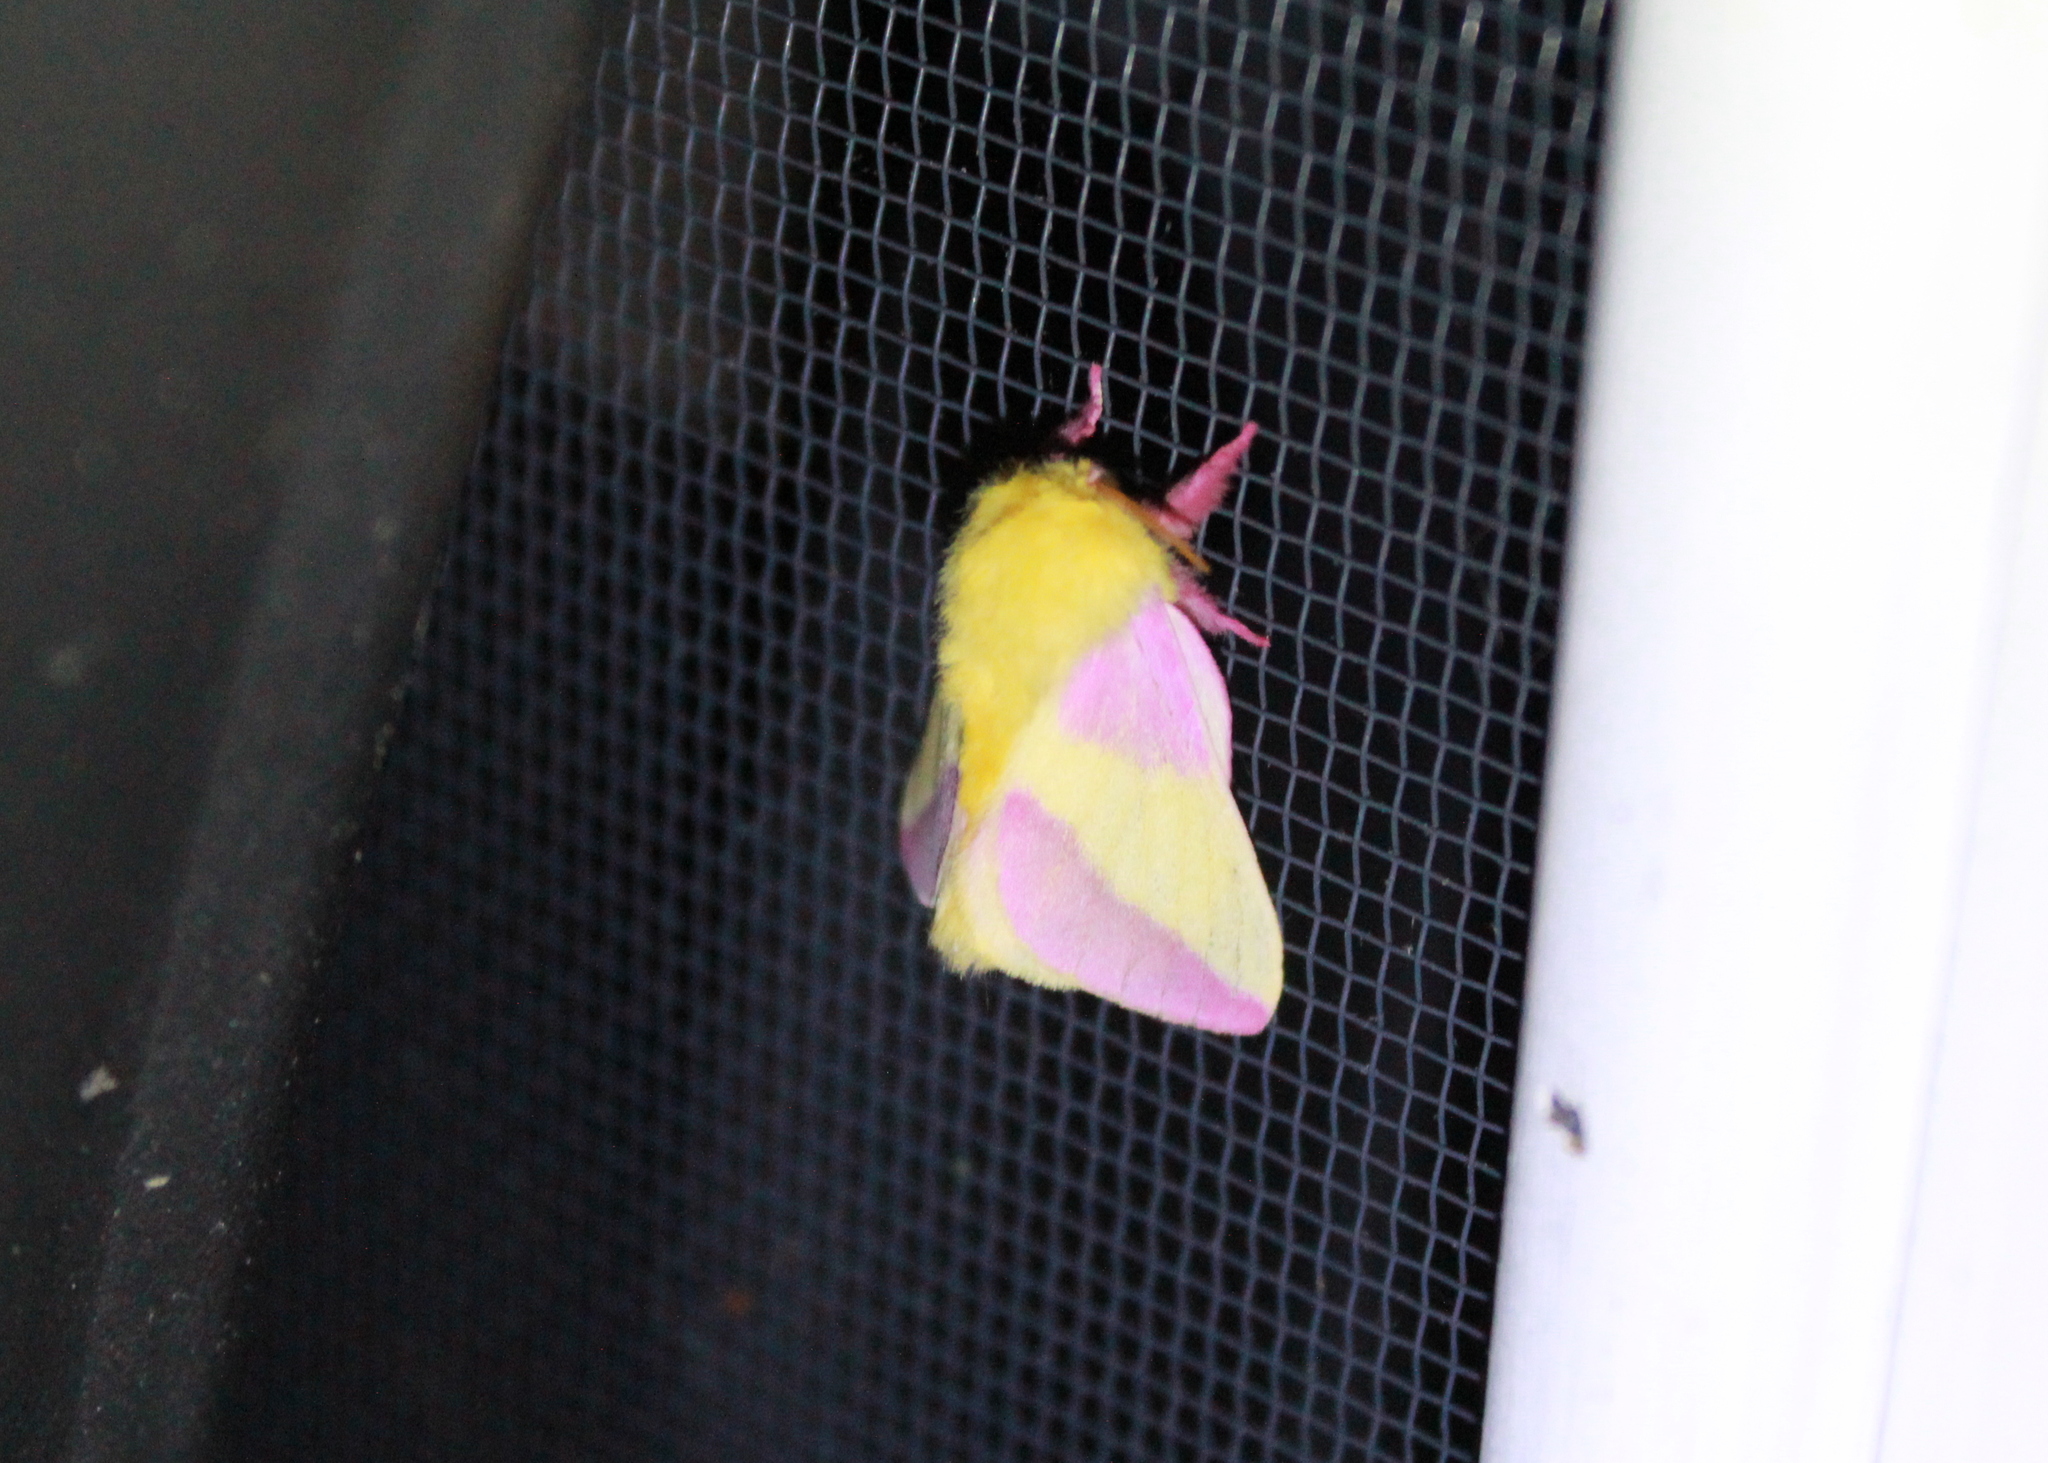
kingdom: Animalia
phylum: Arthropoda
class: Insecta
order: Lepidoptera
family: Saturniidae
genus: Dryocampa
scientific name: Dryocampa rubicunda
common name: Rosy maple moth
